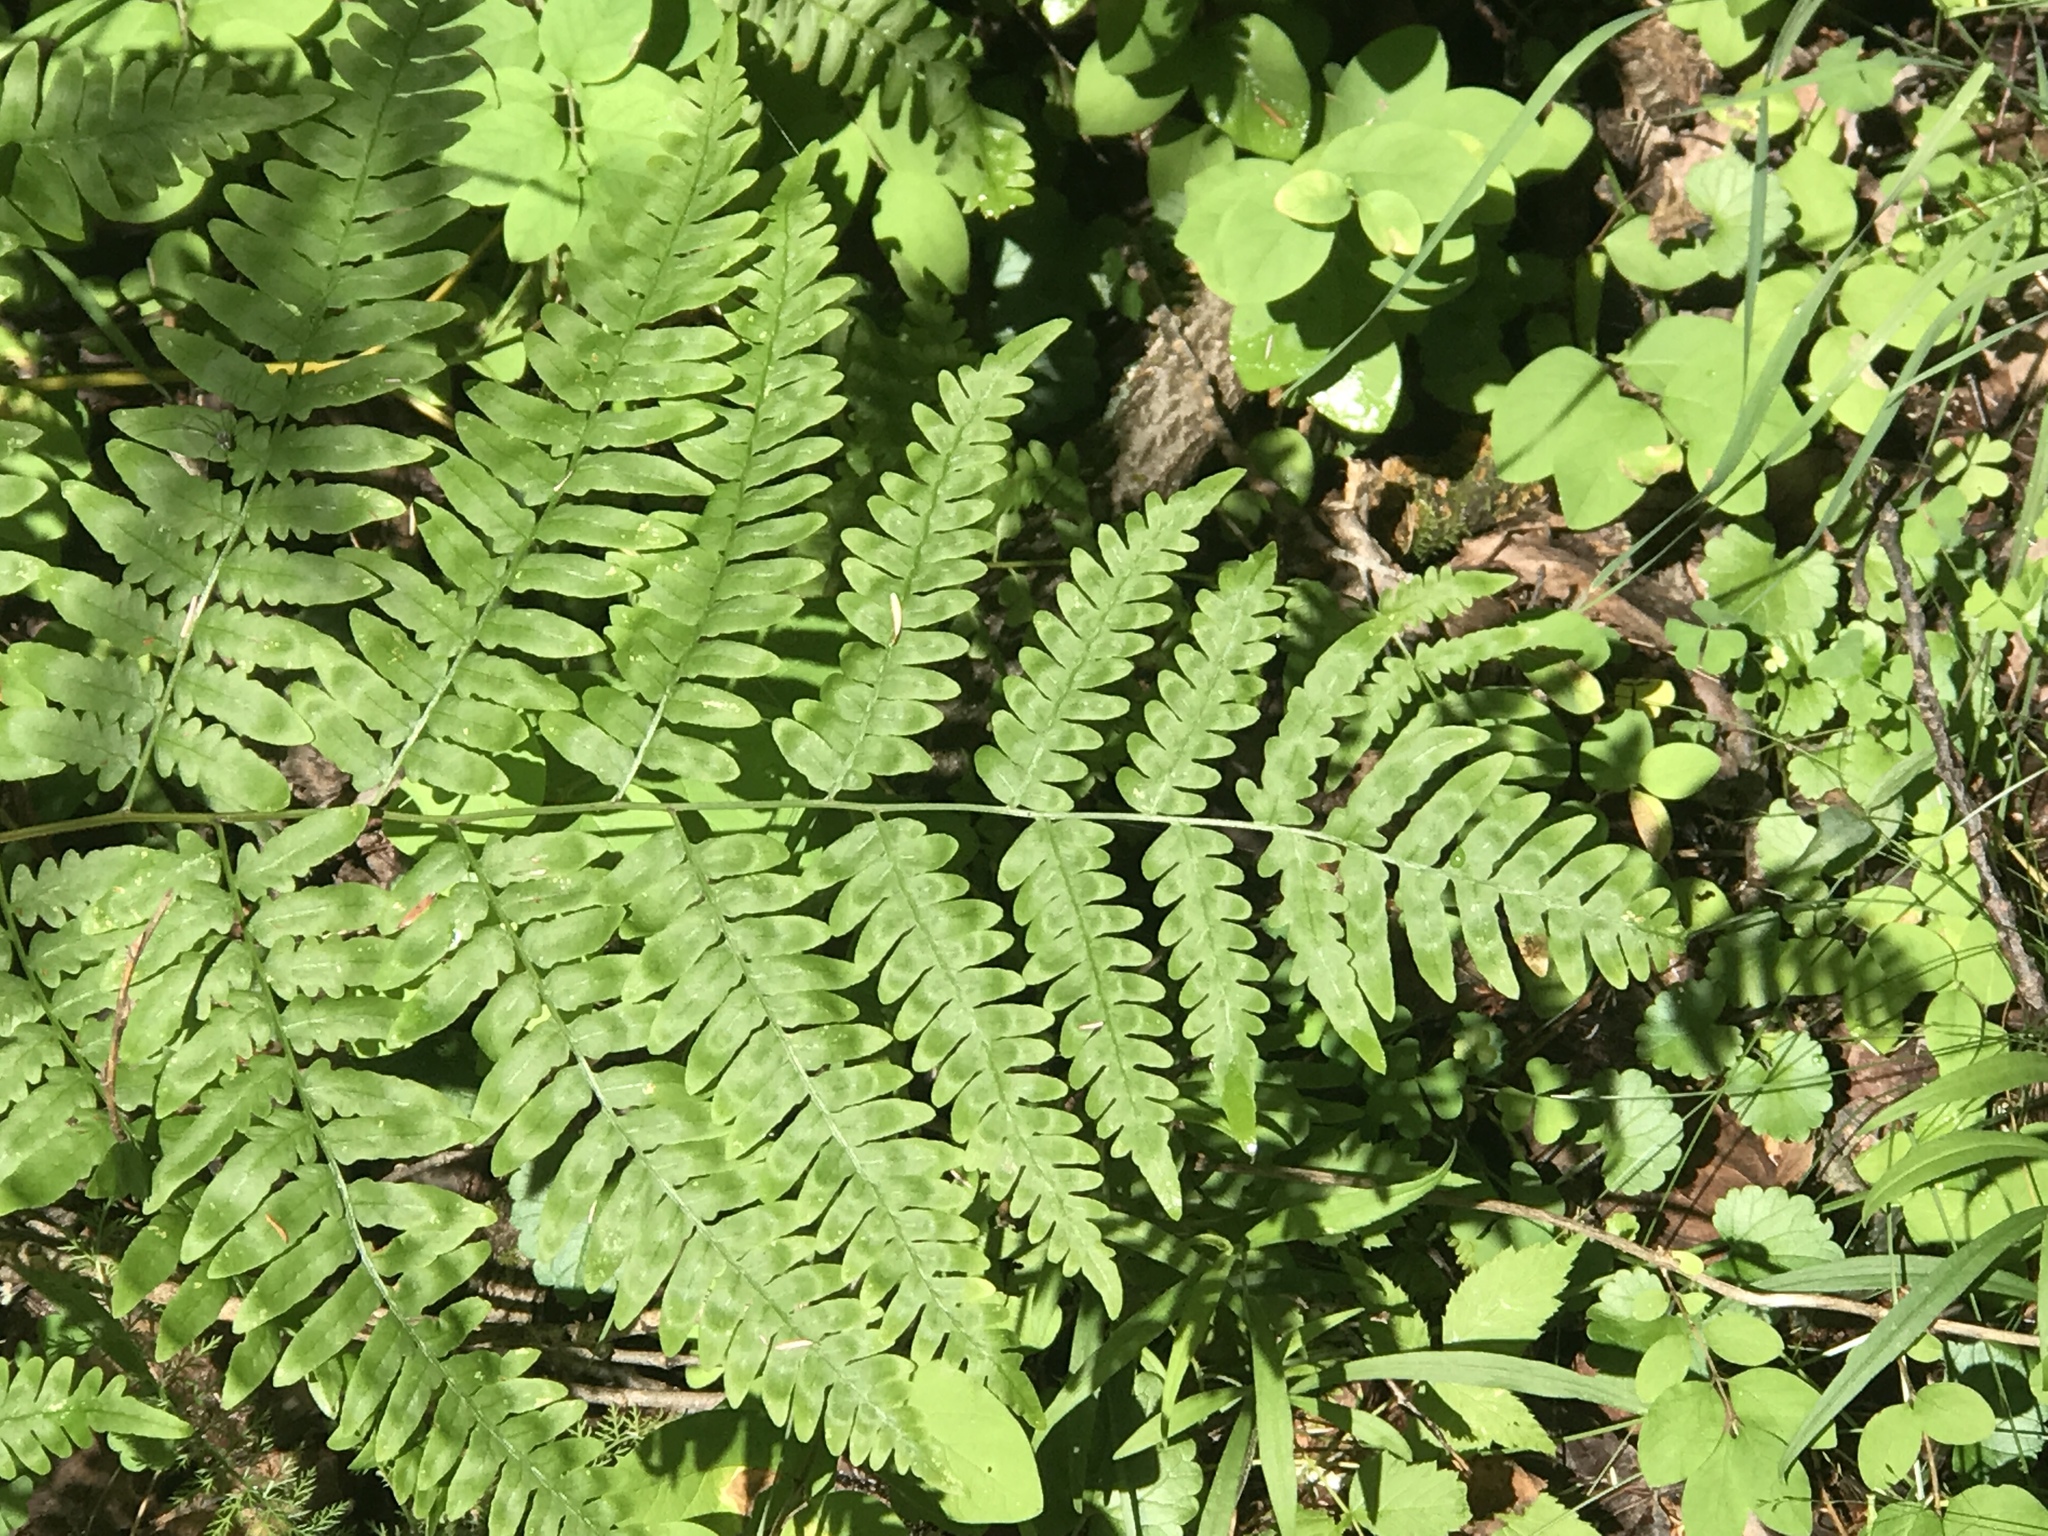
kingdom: Plantae
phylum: Tracheophyta
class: Polypodiopsida
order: Polypodiales
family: Dennstaedtiaceae
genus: Pteridium
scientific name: Pteridium aquilinum
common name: Bracken
